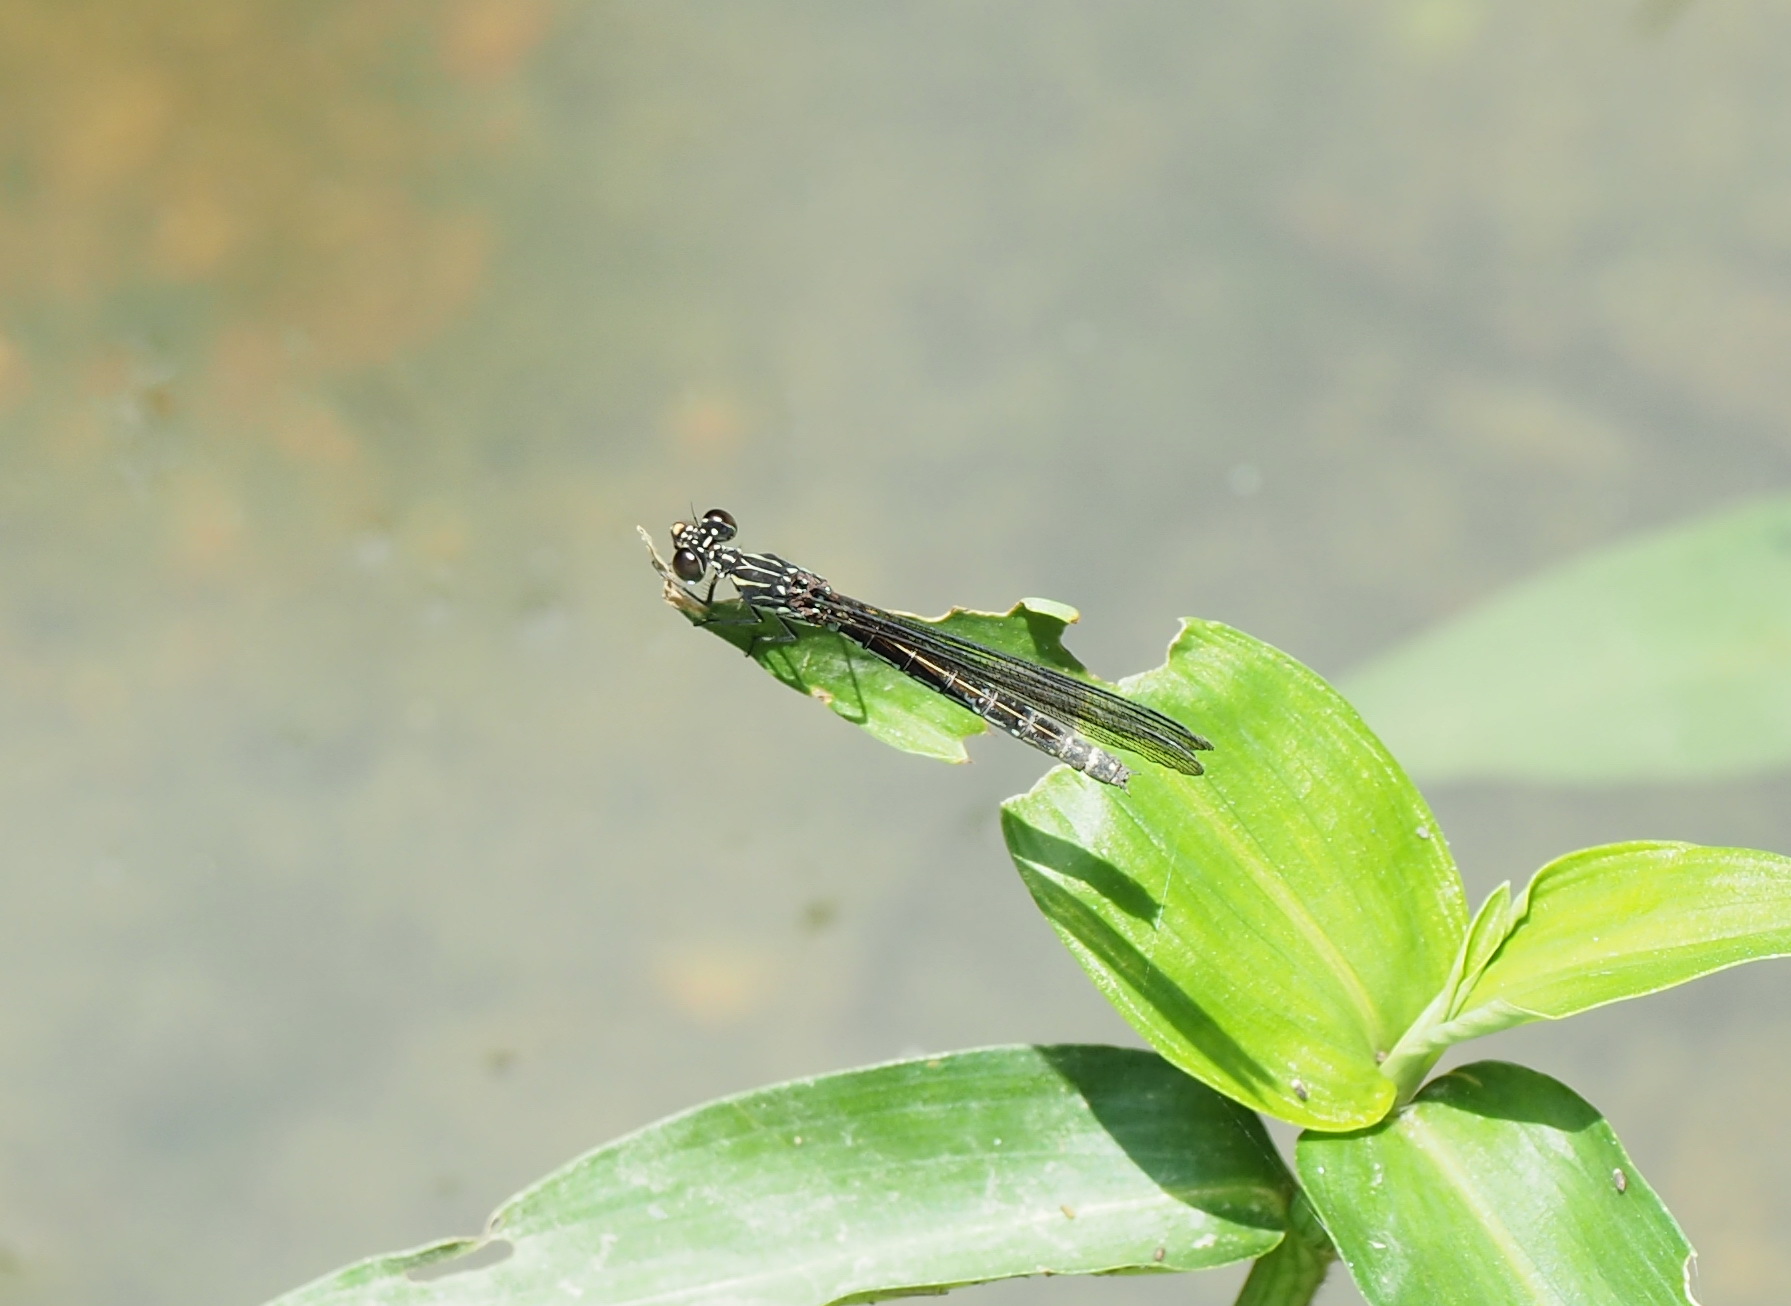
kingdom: Animalia
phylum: Arthropoda
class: Insecta
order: Odonata
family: Chlorocyphidae
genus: Heliocypha
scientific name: Heliocypha perforata
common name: Common blue jewel
